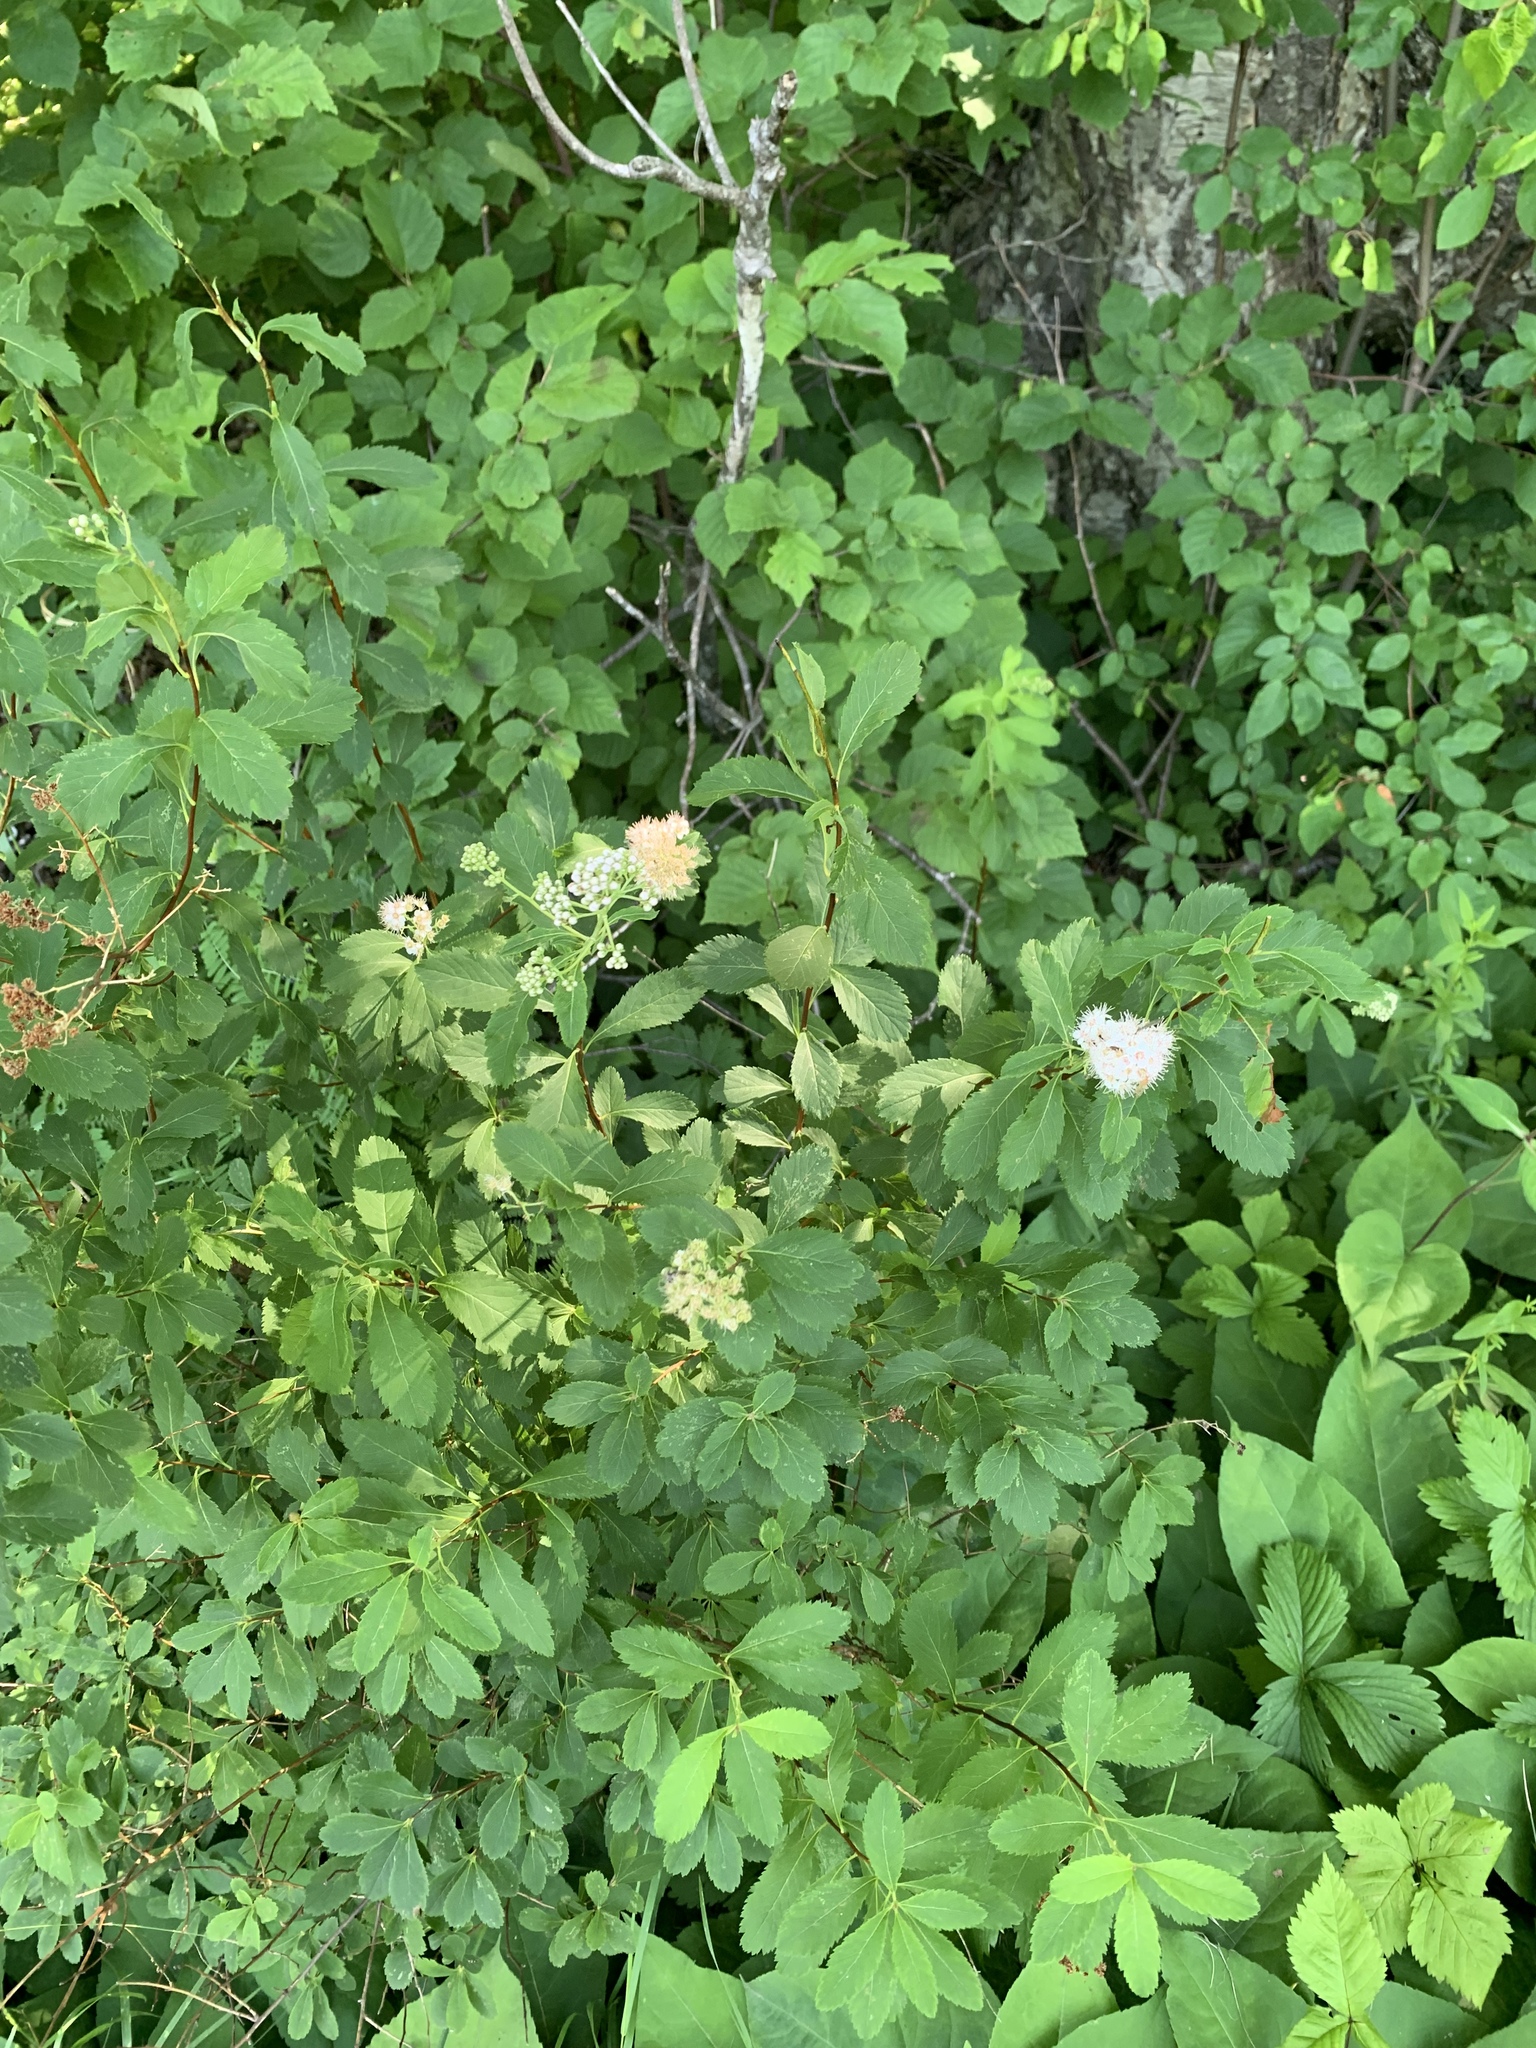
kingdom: Plantae
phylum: Tracheophyta
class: Magnoliopsida
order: Rosales
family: Rosaceae
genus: Spiraea
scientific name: Spiraea alba
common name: Pale bridewort
